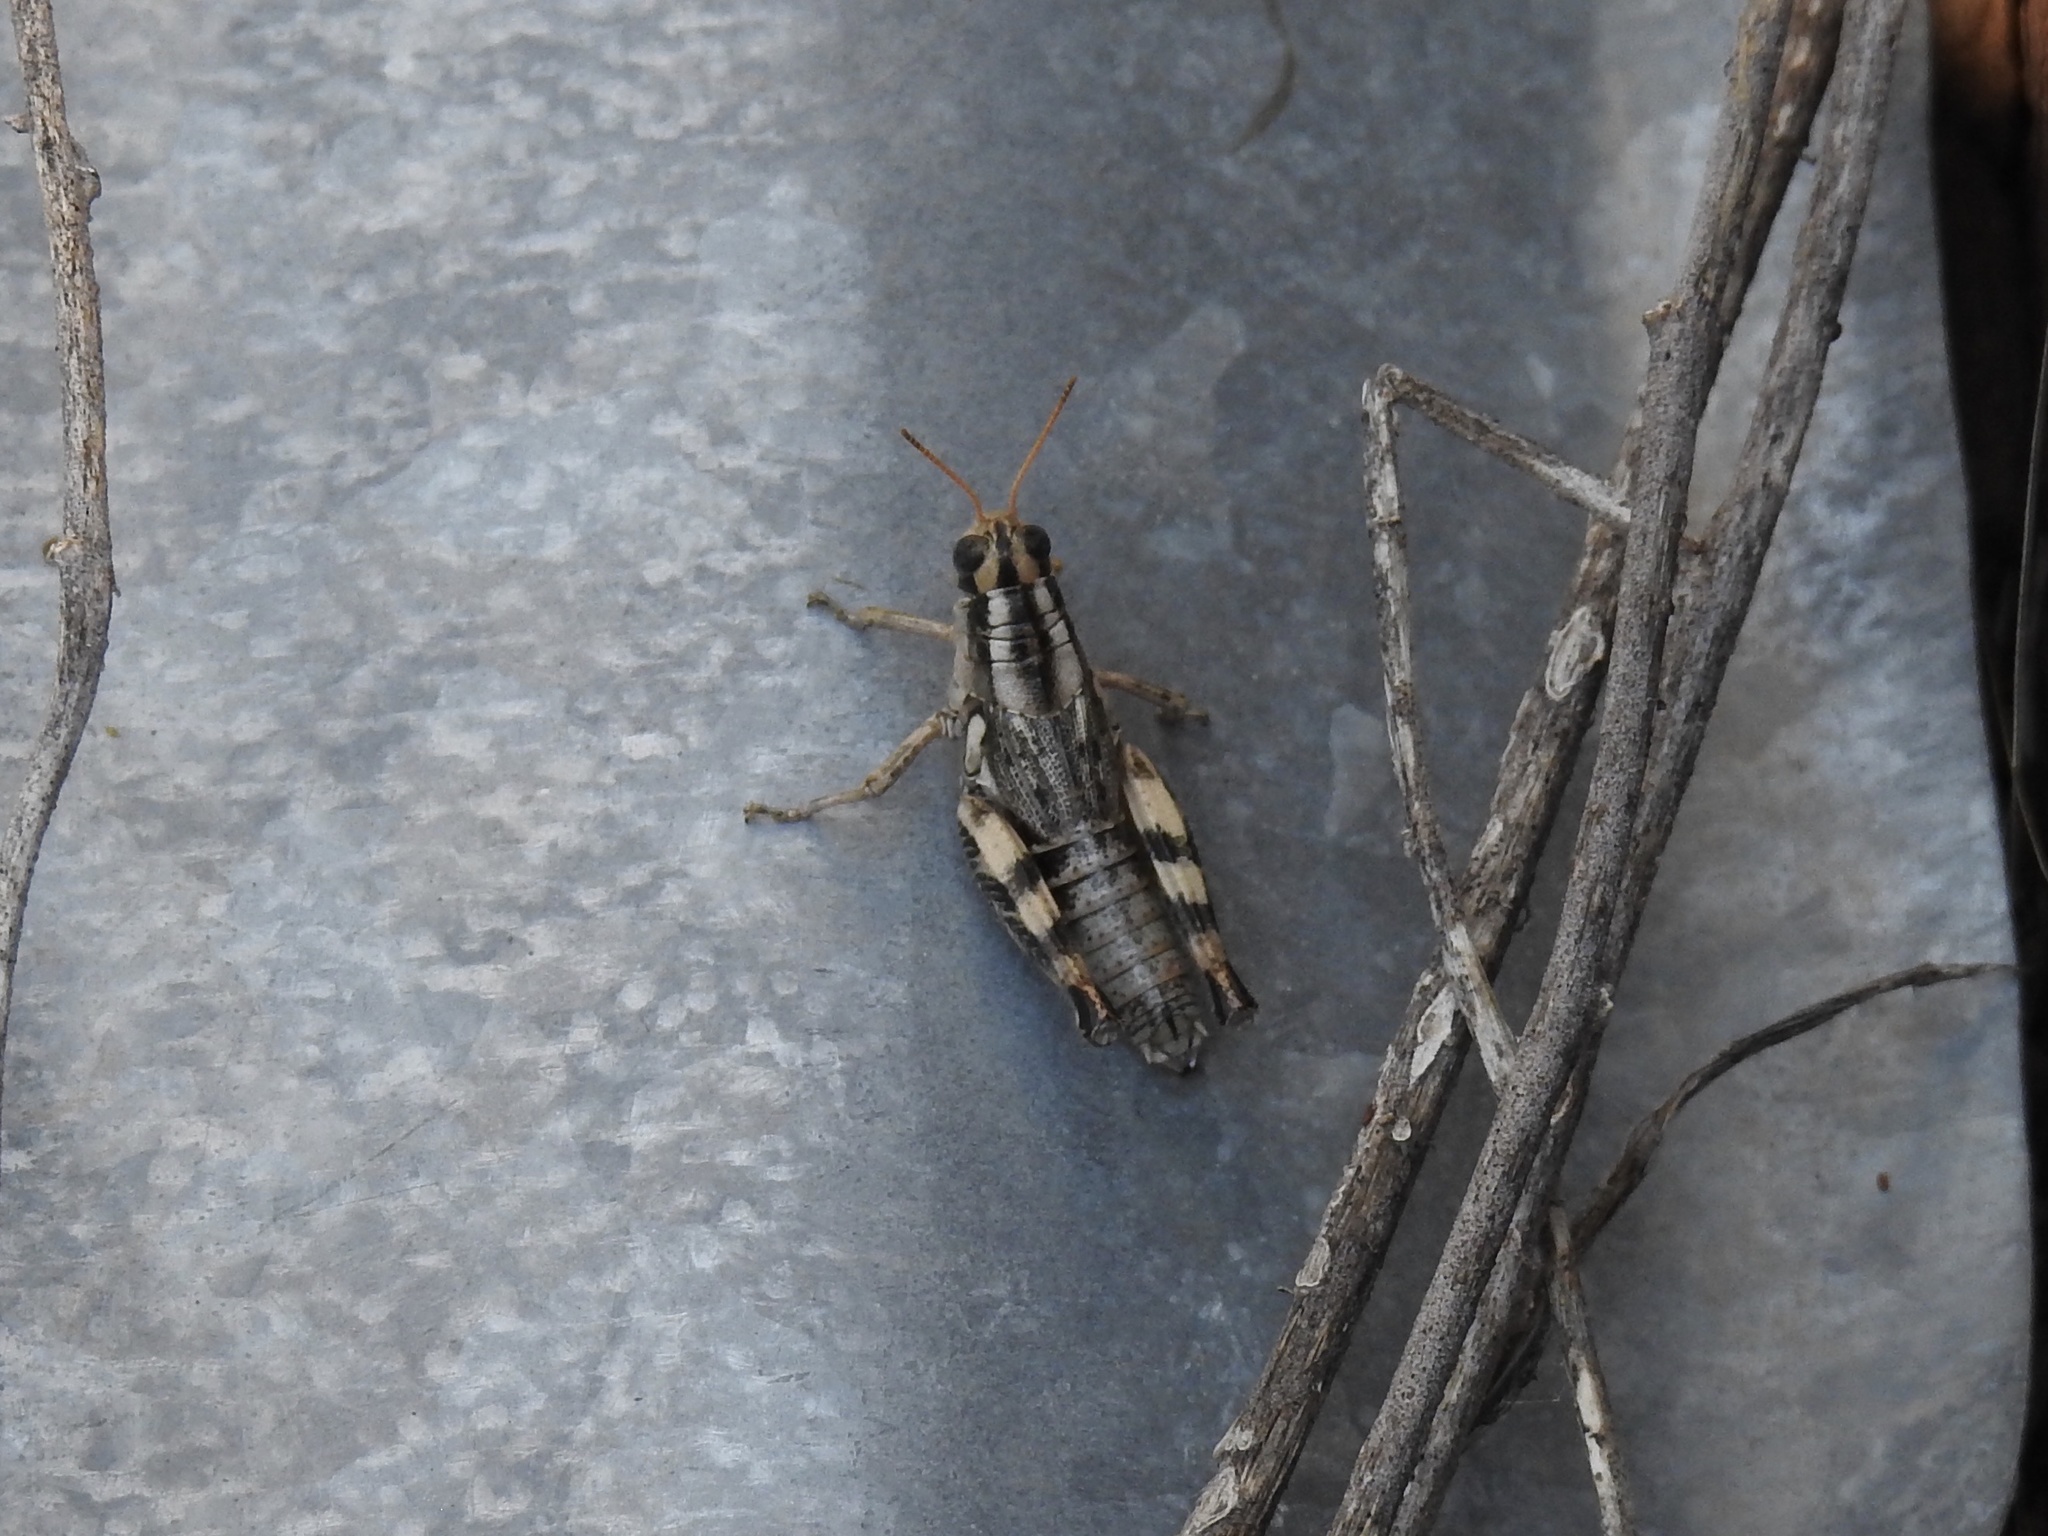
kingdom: Animalia
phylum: Arthropoda
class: Insecta
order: Orthoptera
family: Acrididae
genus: Aeoloplides
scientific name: Aeoloplides rotundipennis
